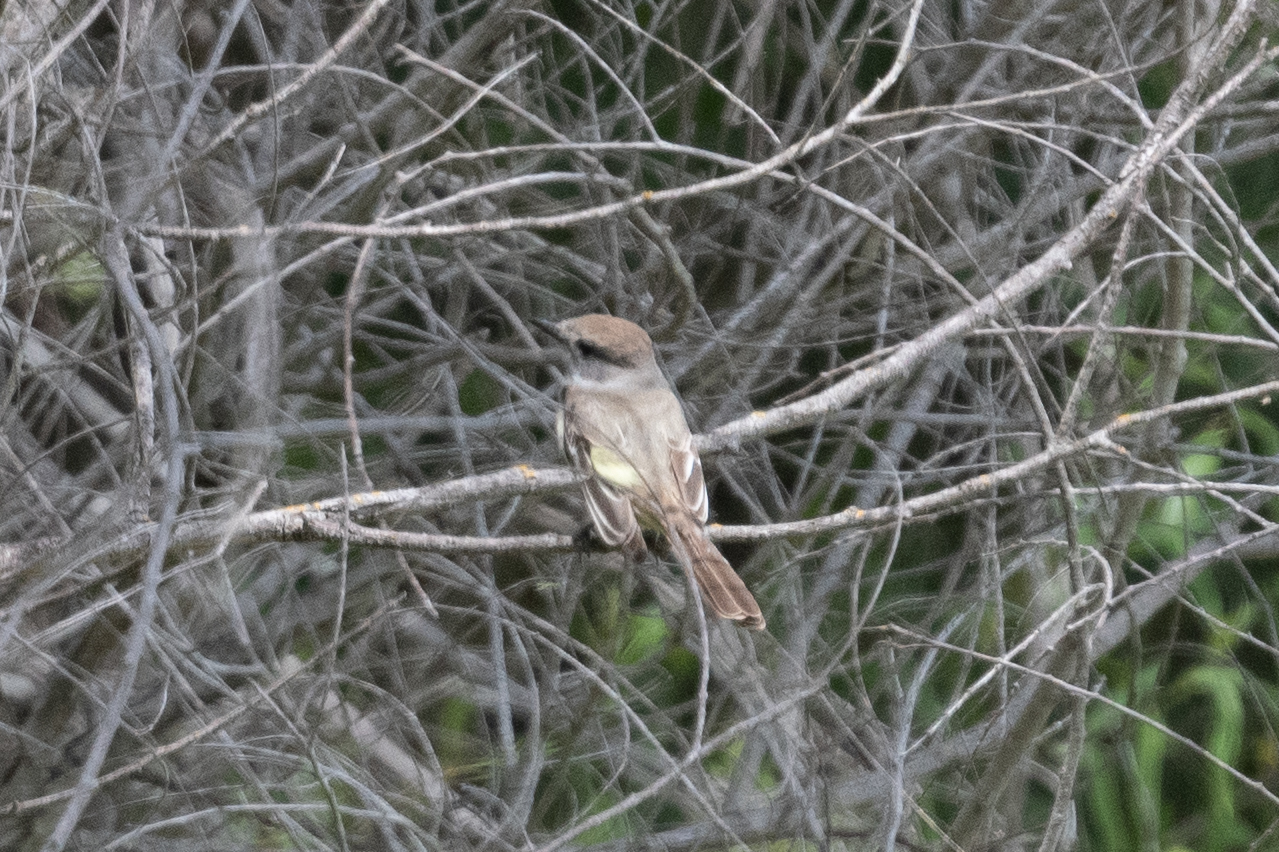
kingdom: Animalia
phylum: Chordata
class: Aves
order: Passeriformes
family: Tyrannidae
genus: Myiarchus
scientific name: Myiarchus cinerascens
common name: Ash-throated flycatcher
